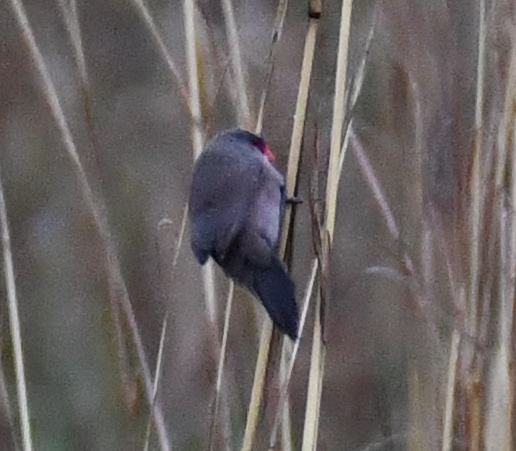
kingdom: Animalia
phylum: Chordata
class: Aves
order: Passeriformes
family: Estrildidae
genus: Estrilda
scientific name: Estrilda astrild
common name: Common waxbill
